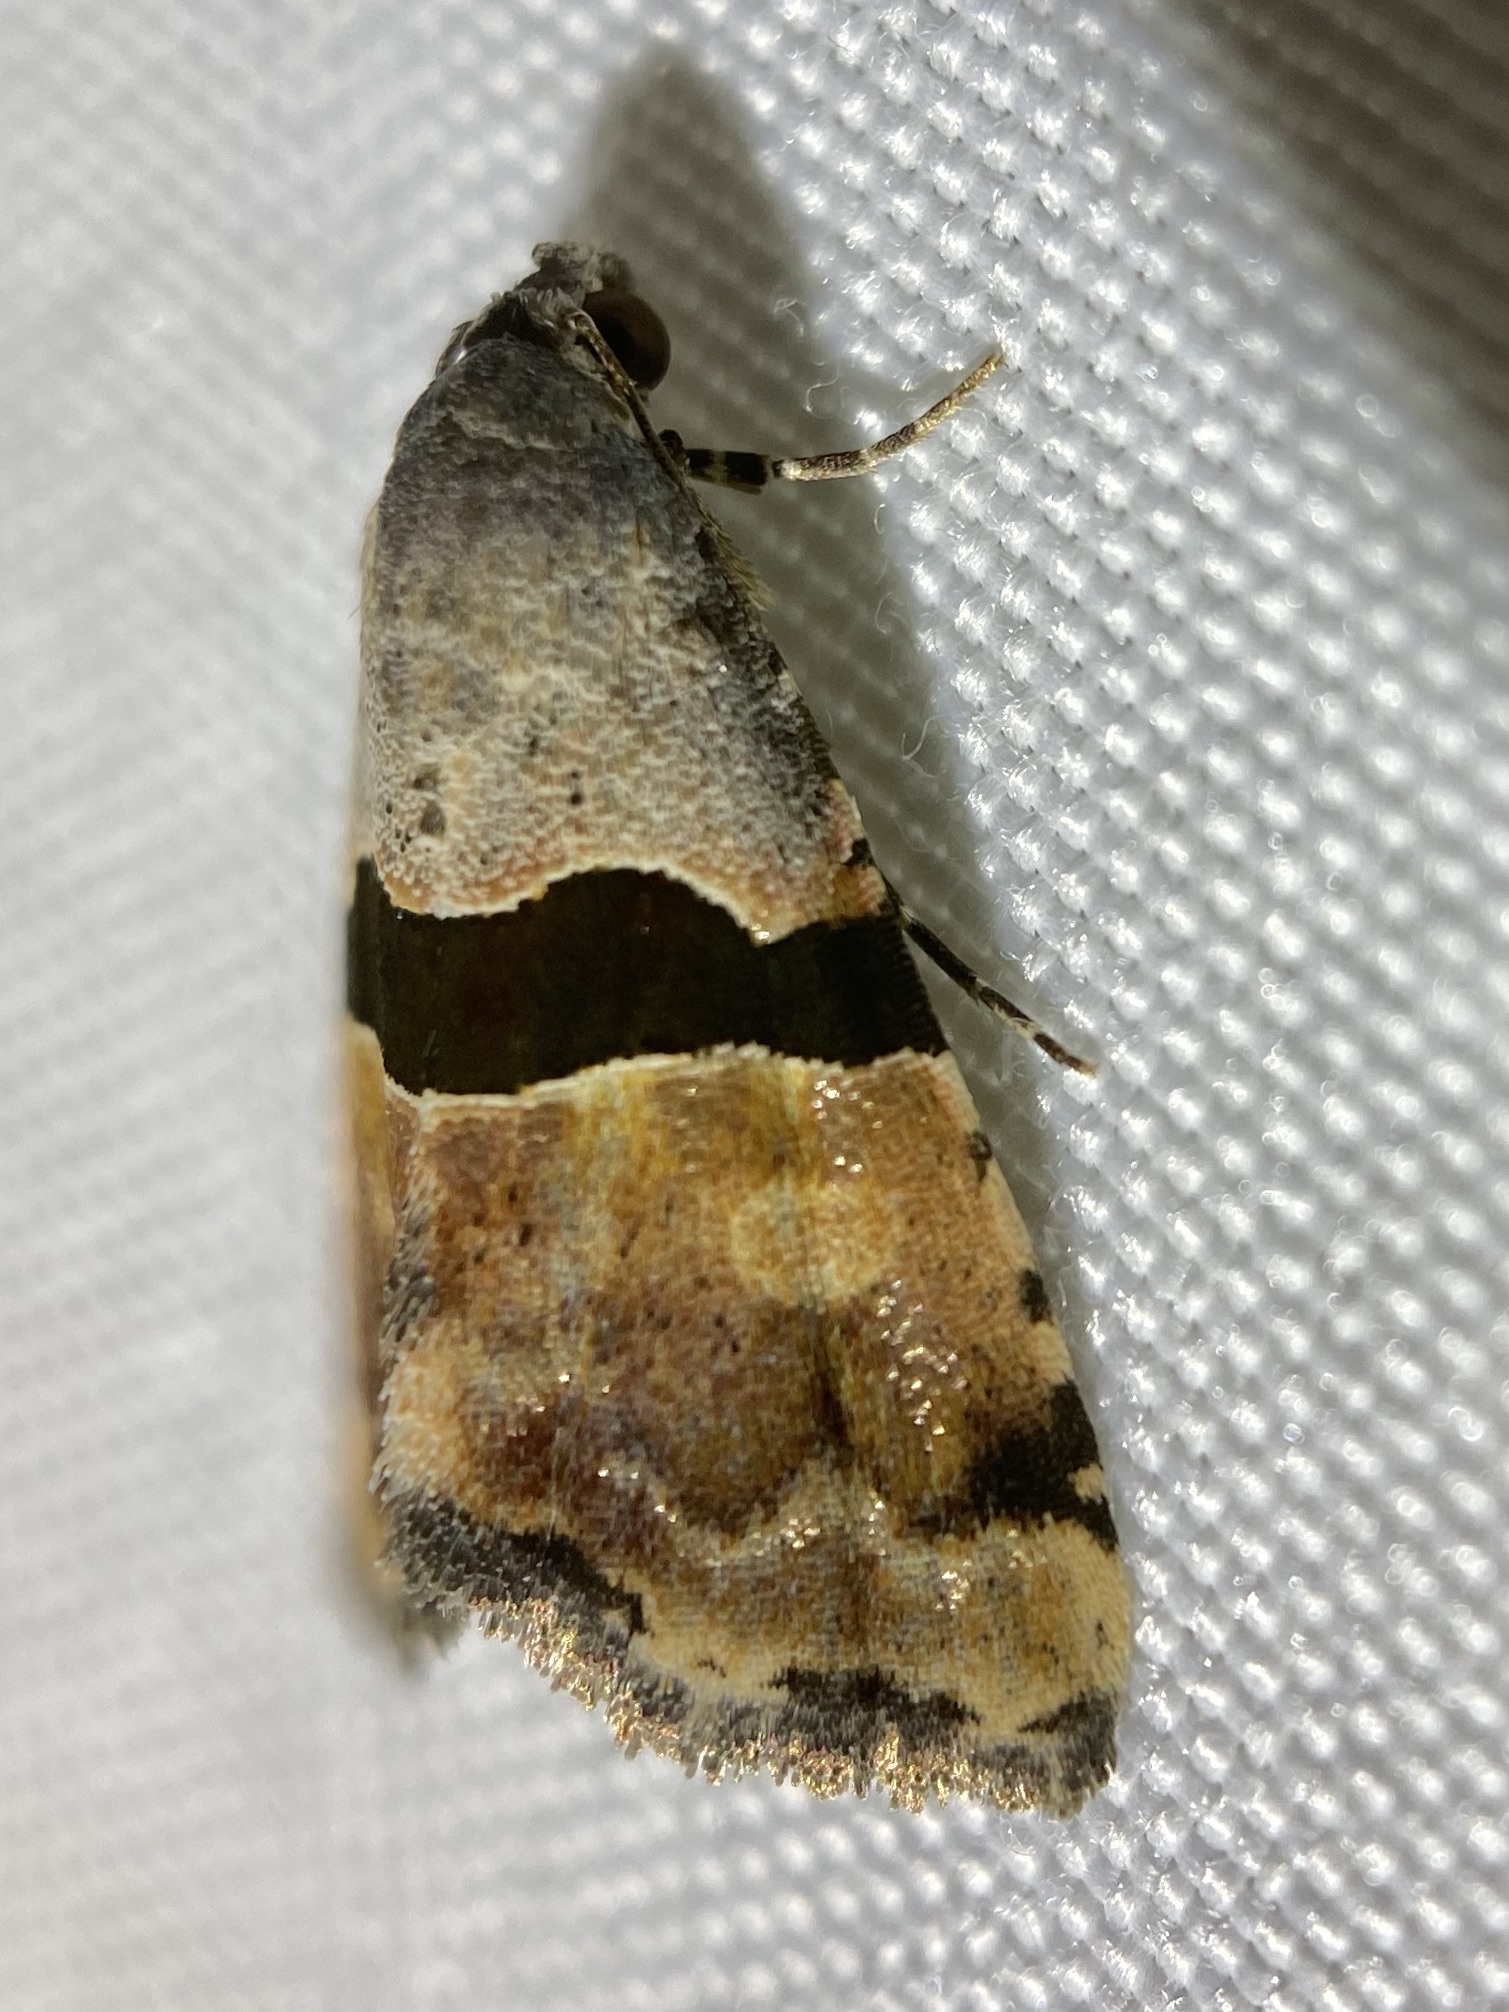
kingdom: Animalia
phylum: Arthropoda
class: Insecta
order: Lepidoptera
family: Noctuidae
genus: Cobubatha
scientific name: Cobubatha lixiva
